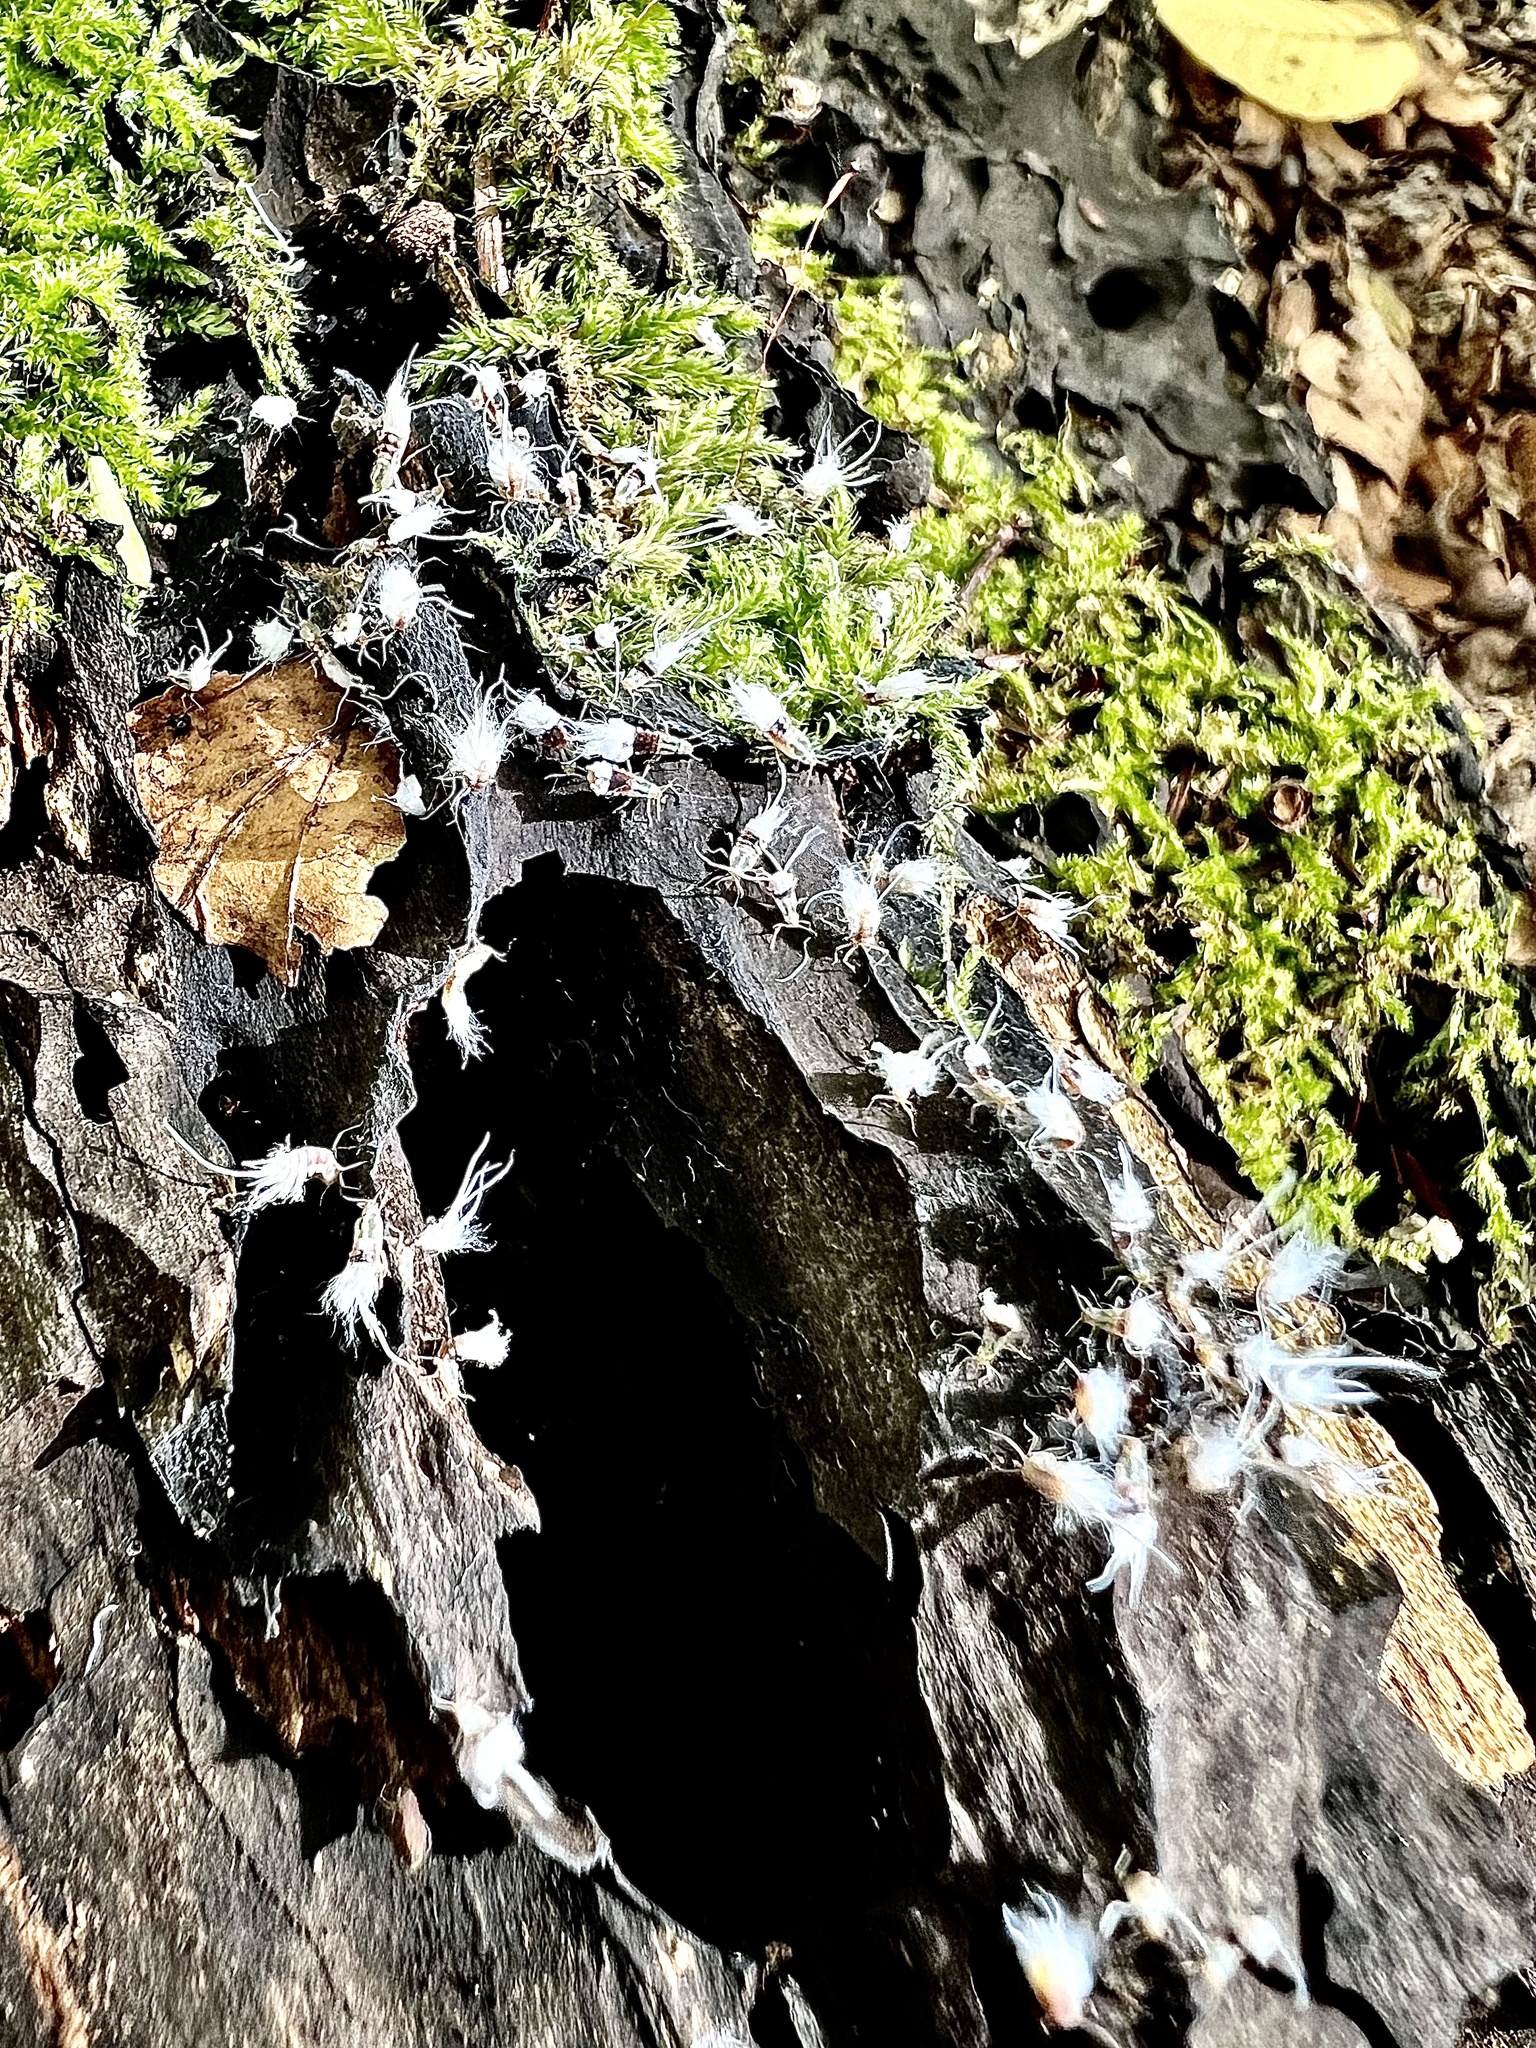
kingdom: Animalia
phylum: Arthropoda
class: Insecta
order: Hemiptera
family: Aphididae
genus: Grylloprociphilus
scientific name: Grylloprociphilus imbricator
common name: Beech blight aphid
